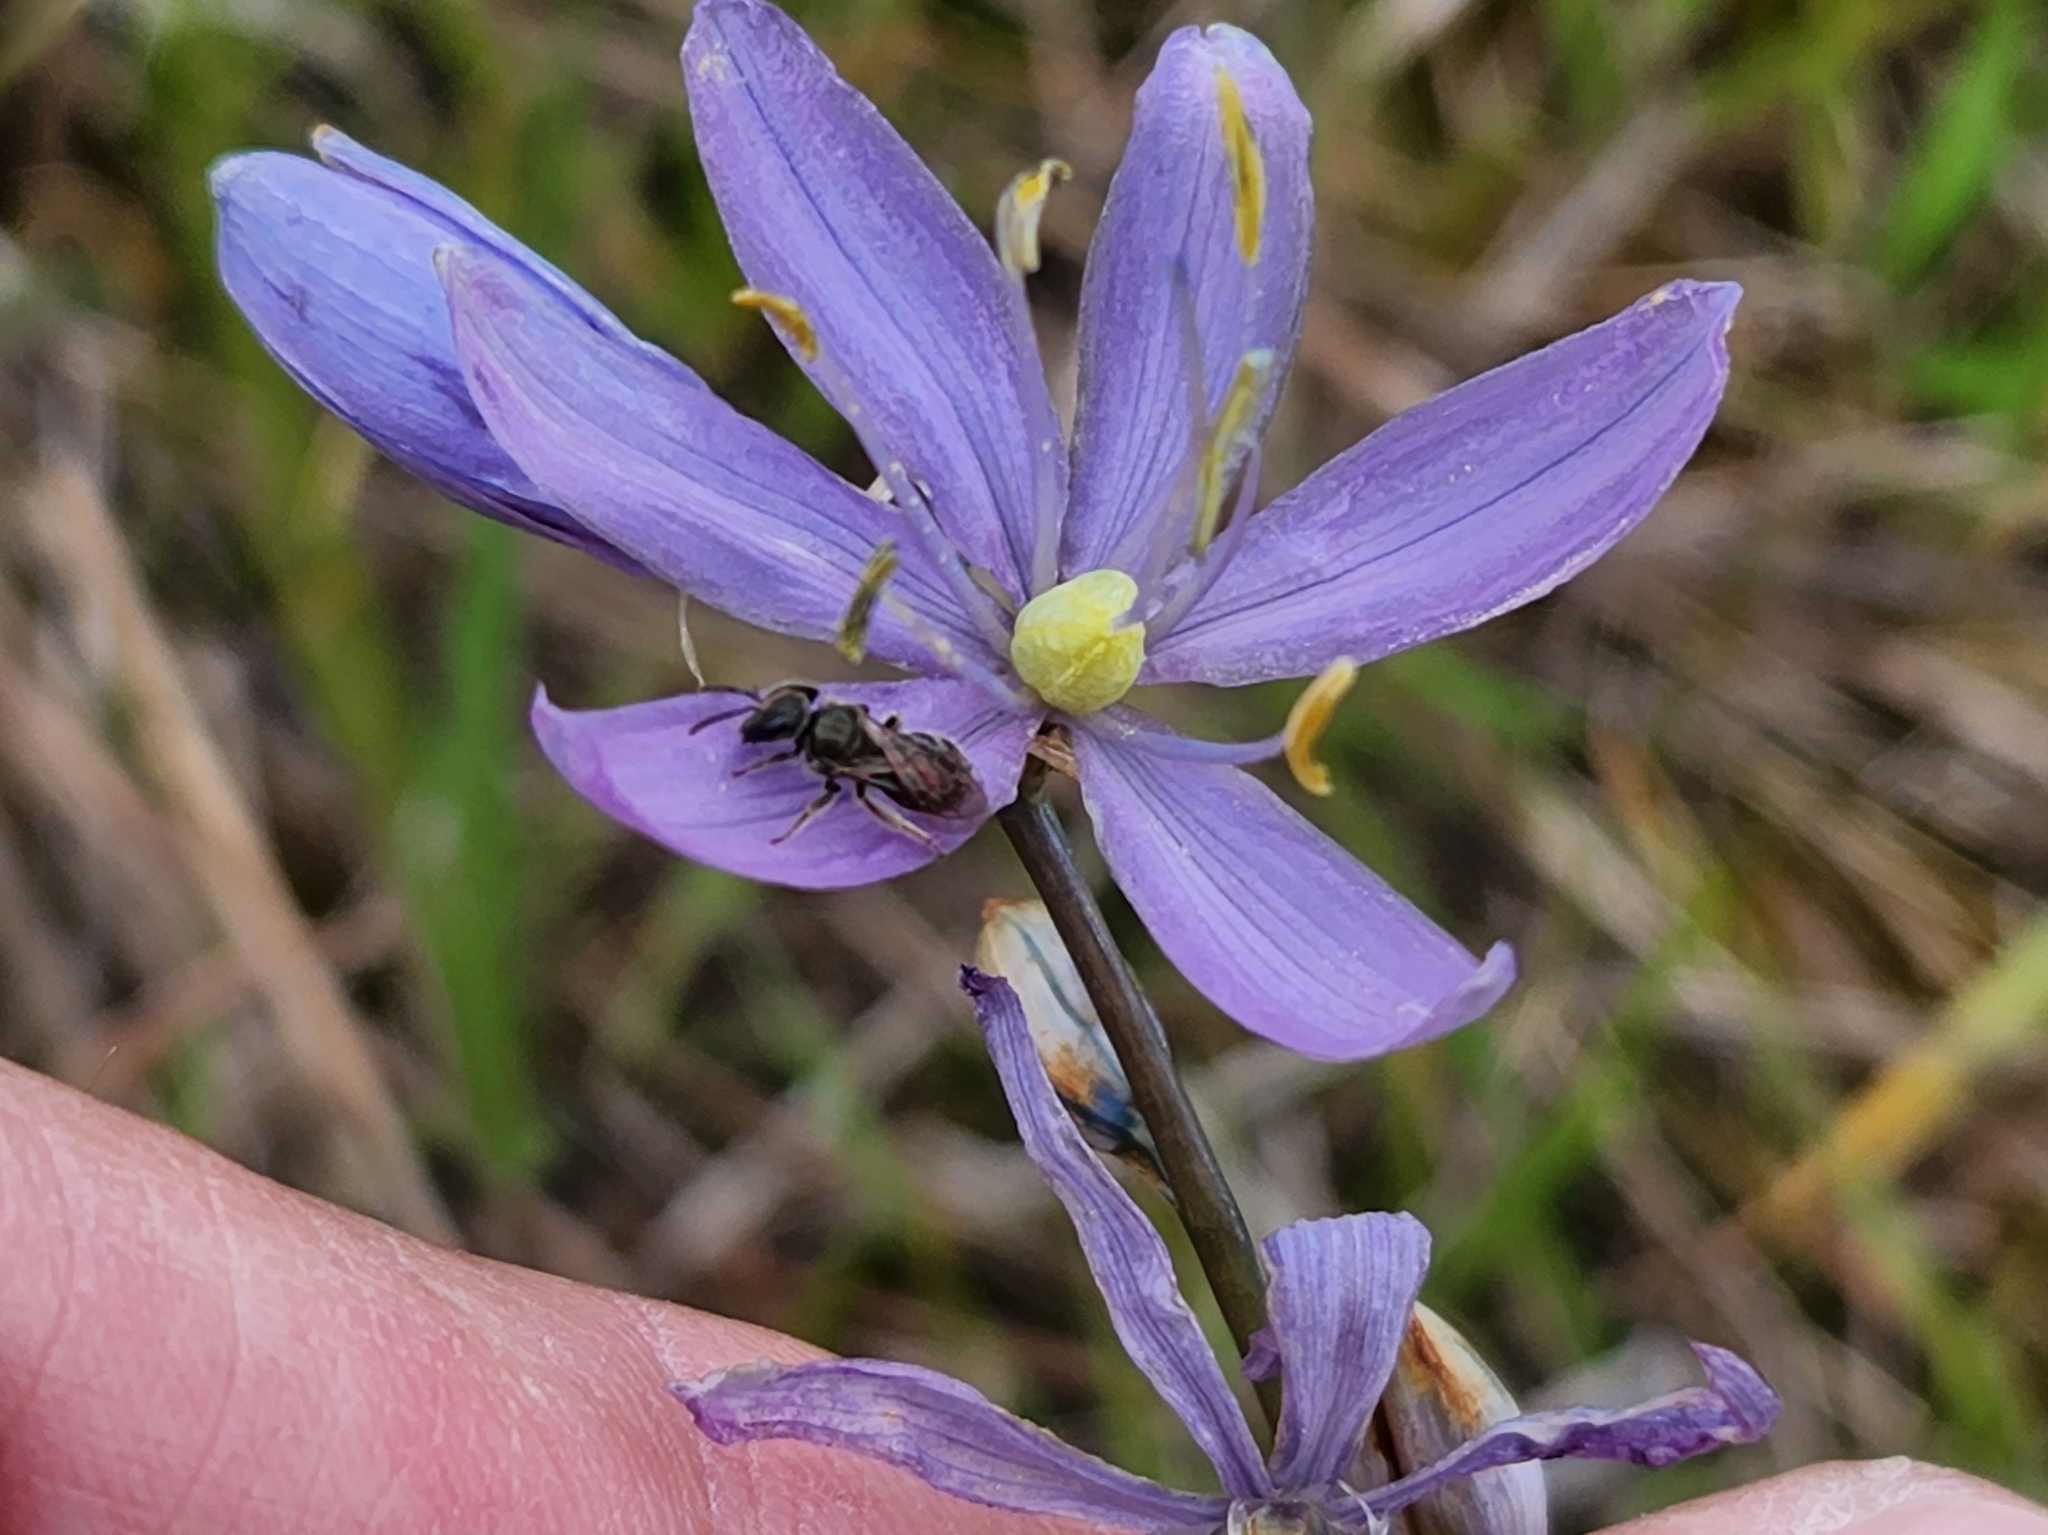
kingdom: Plantae
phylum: Tracheophyta
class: Liliopsida
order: Asparagales
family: Asparagaceae
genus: Camassia
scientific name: Camassia quamash
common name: Common camas
